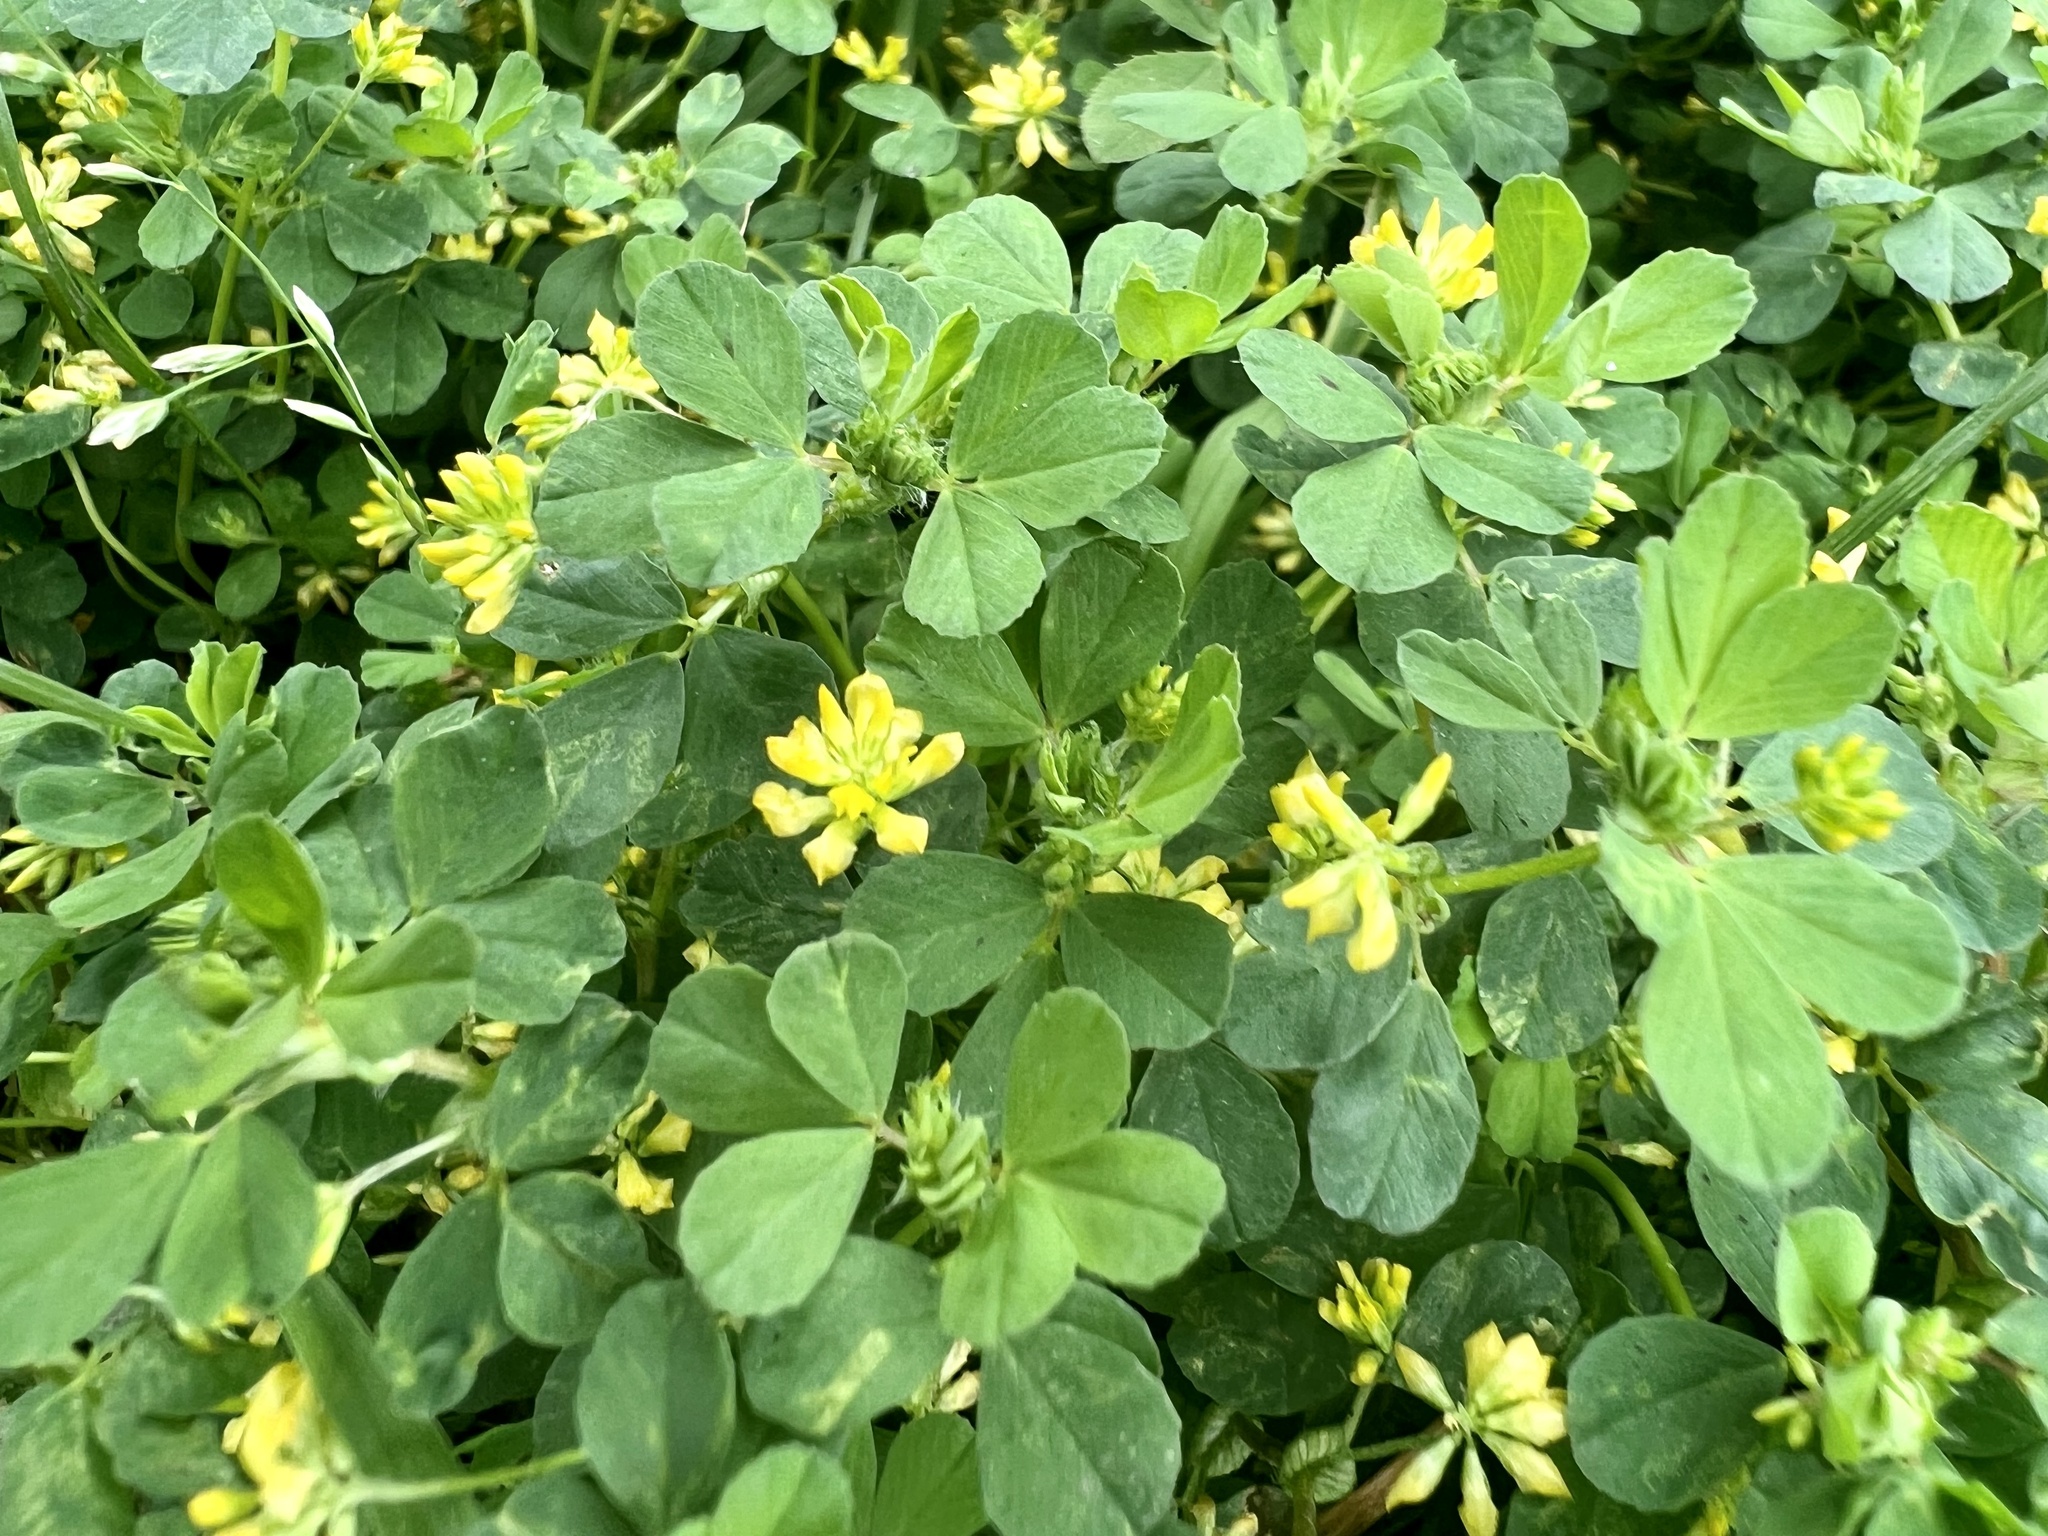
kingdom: Plantae
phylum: Tracheophyta
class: Magnoliopsida
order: Fabales
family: Fabaceae
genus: Trifolium
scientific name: Trifolium dubium
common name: Suckling clover
